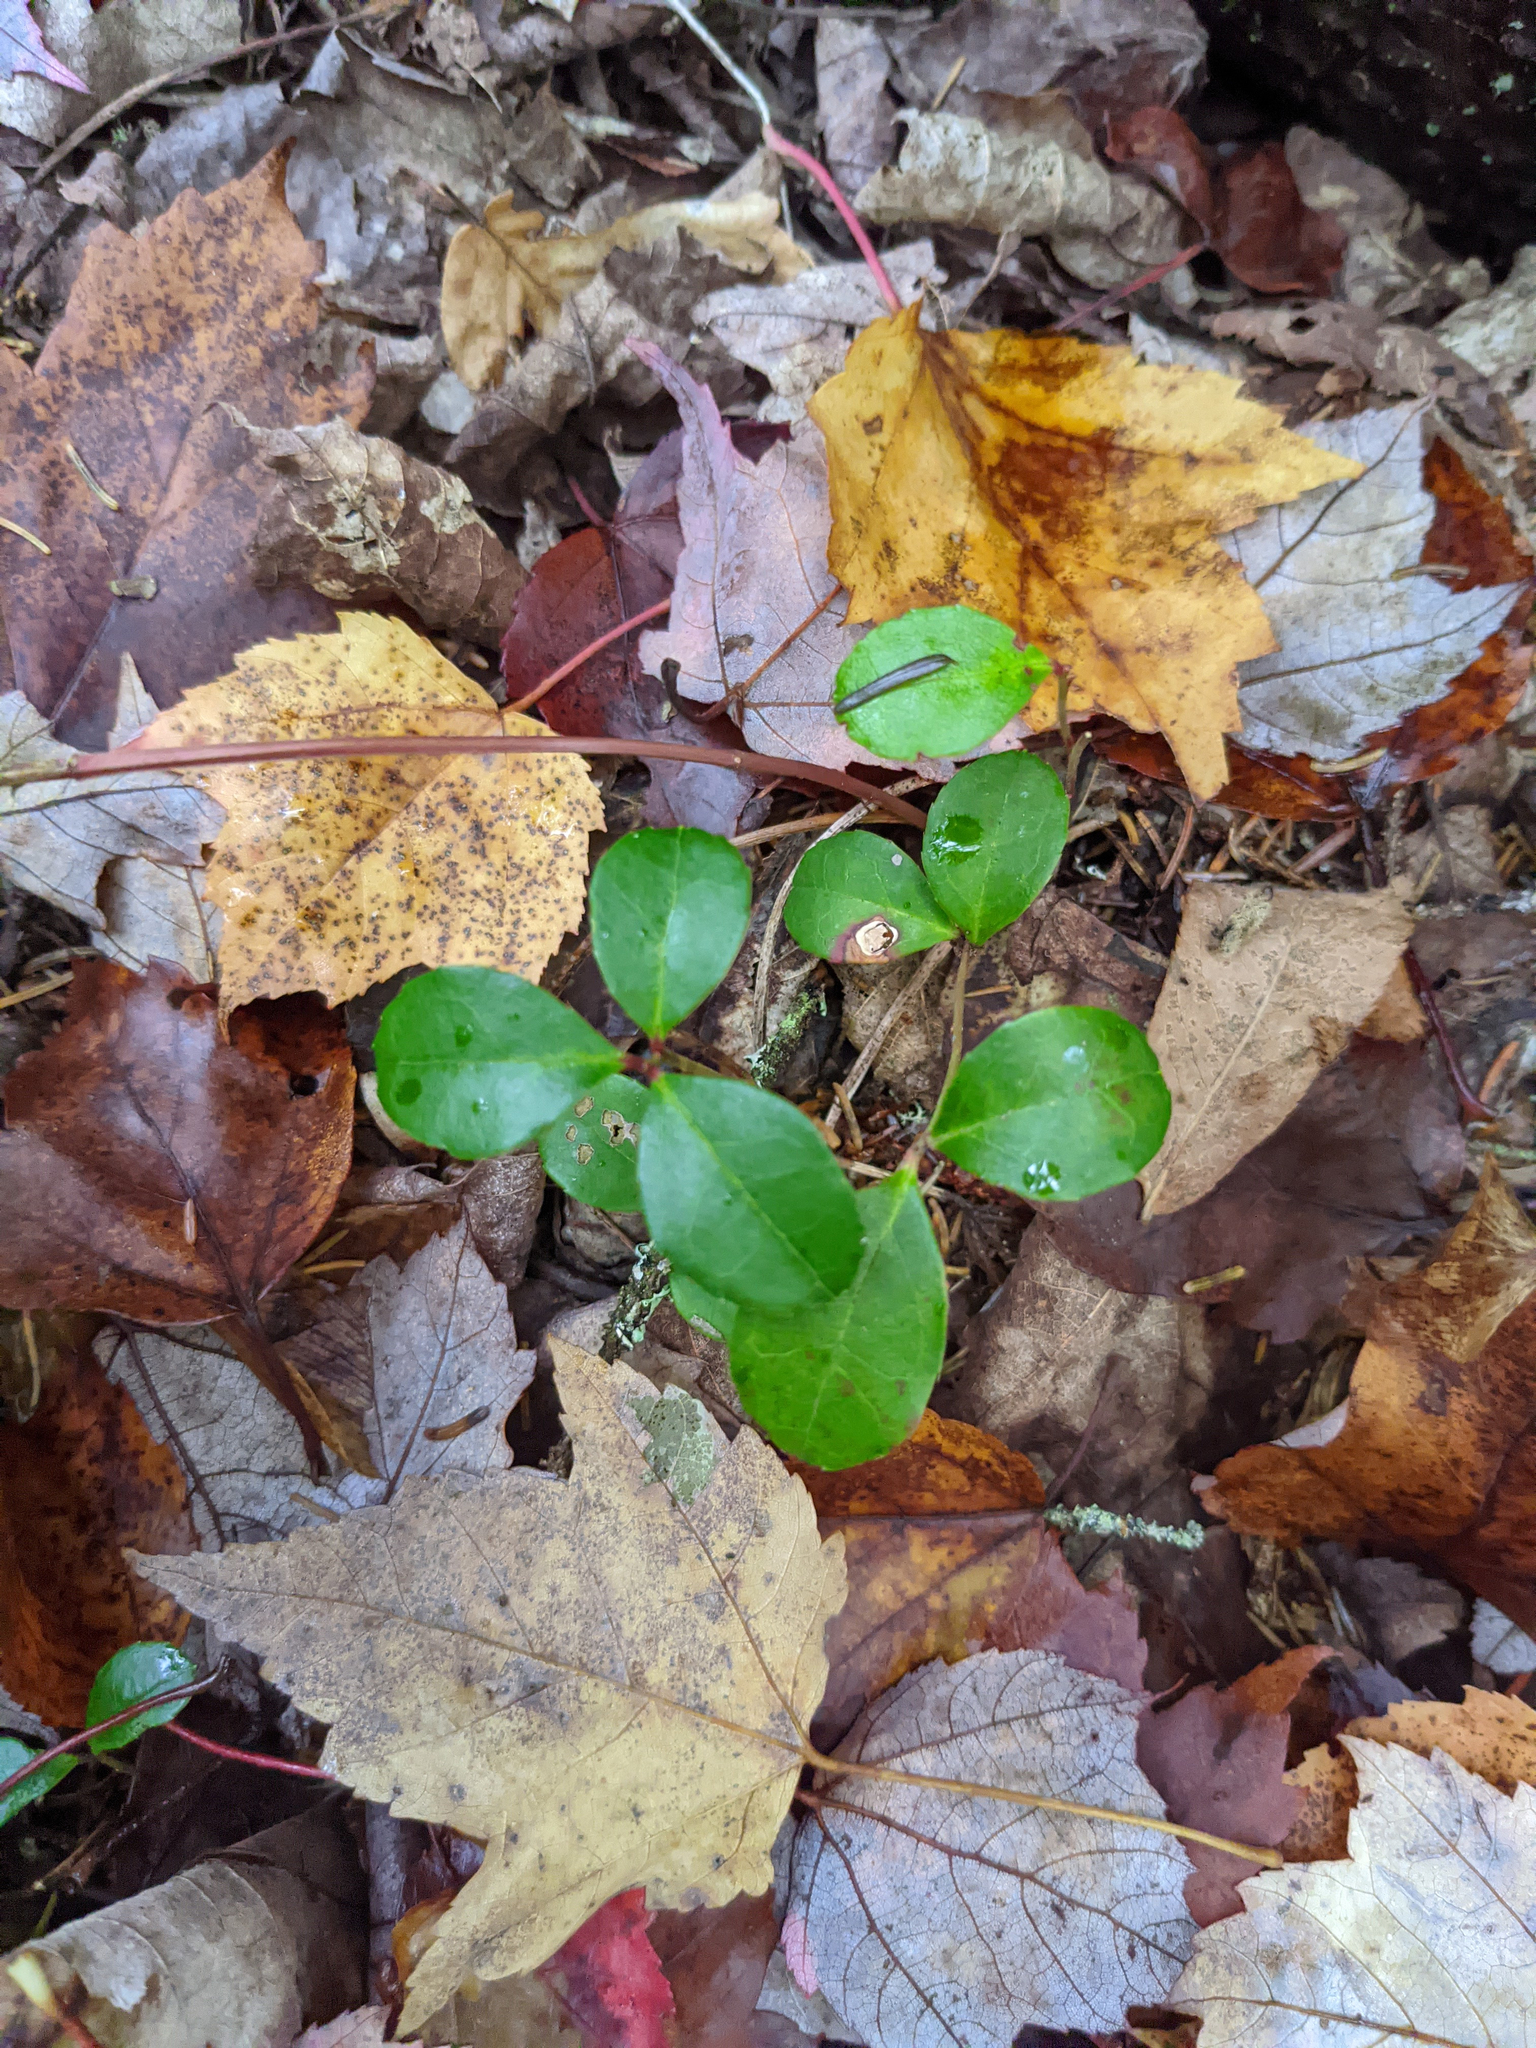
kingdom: Plantae
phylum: Tracheophyta
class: Magnoliopsida
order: Ericales
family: Ericaceae
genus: Gaultheria
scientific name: Gaultheria procumbens
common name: Checkerberry
